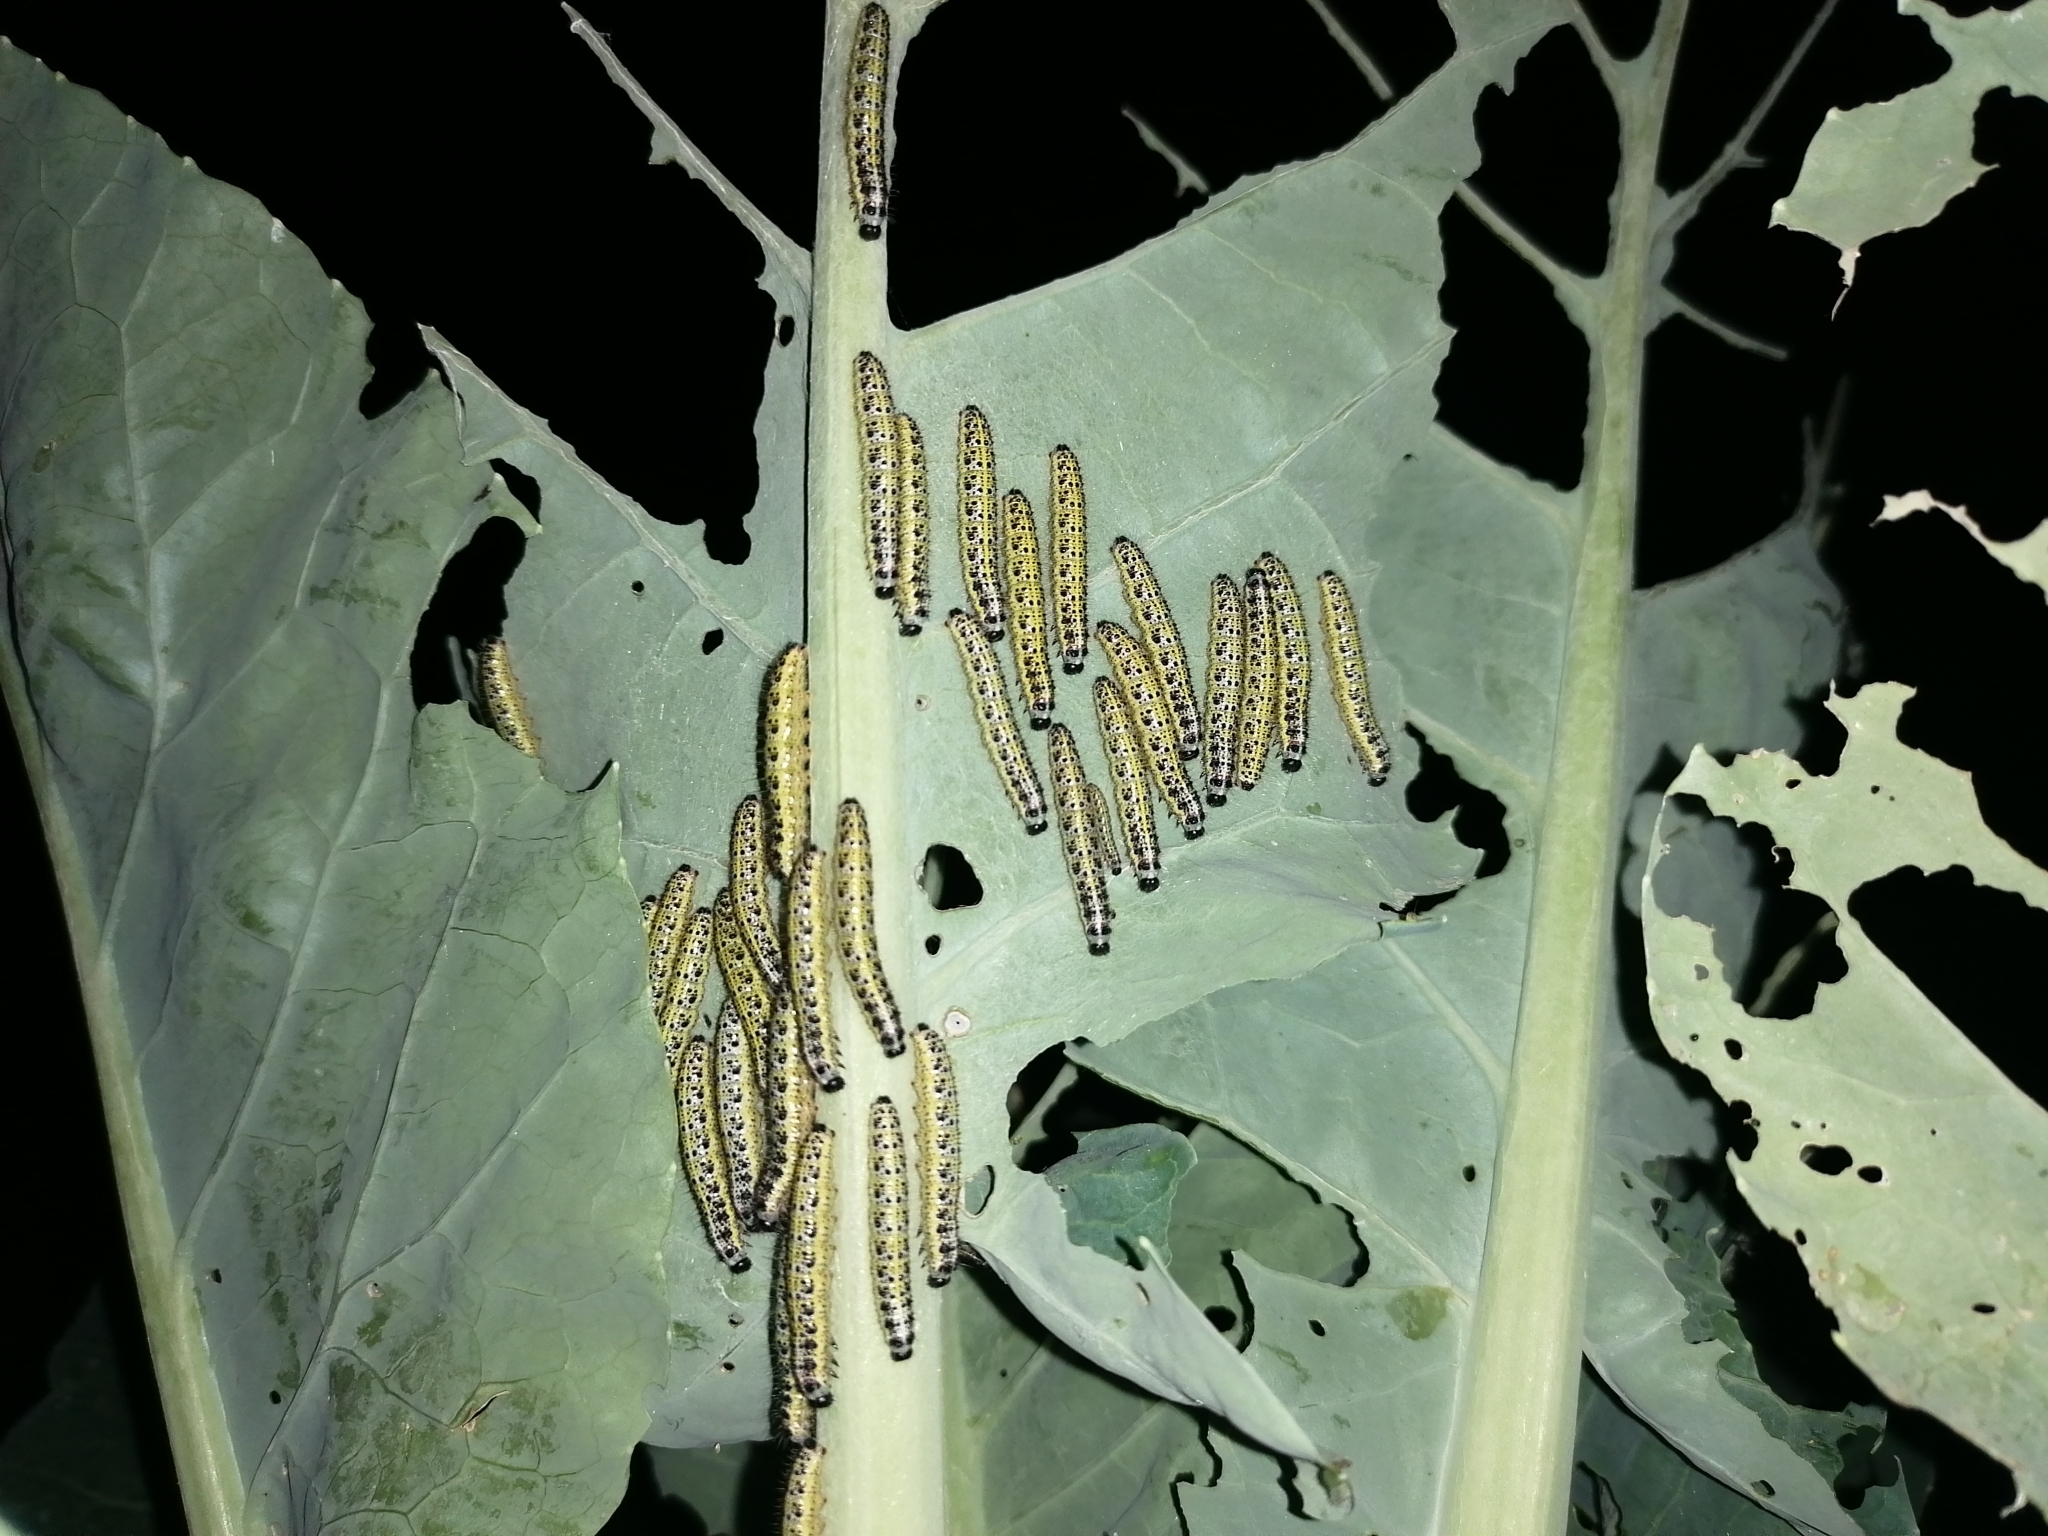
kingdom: Animalia
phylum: Arthropoda
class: Insecta
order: Lepidoptera
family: Pieridae
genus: Pieris
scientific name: Pieris brassicae
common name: Large white
